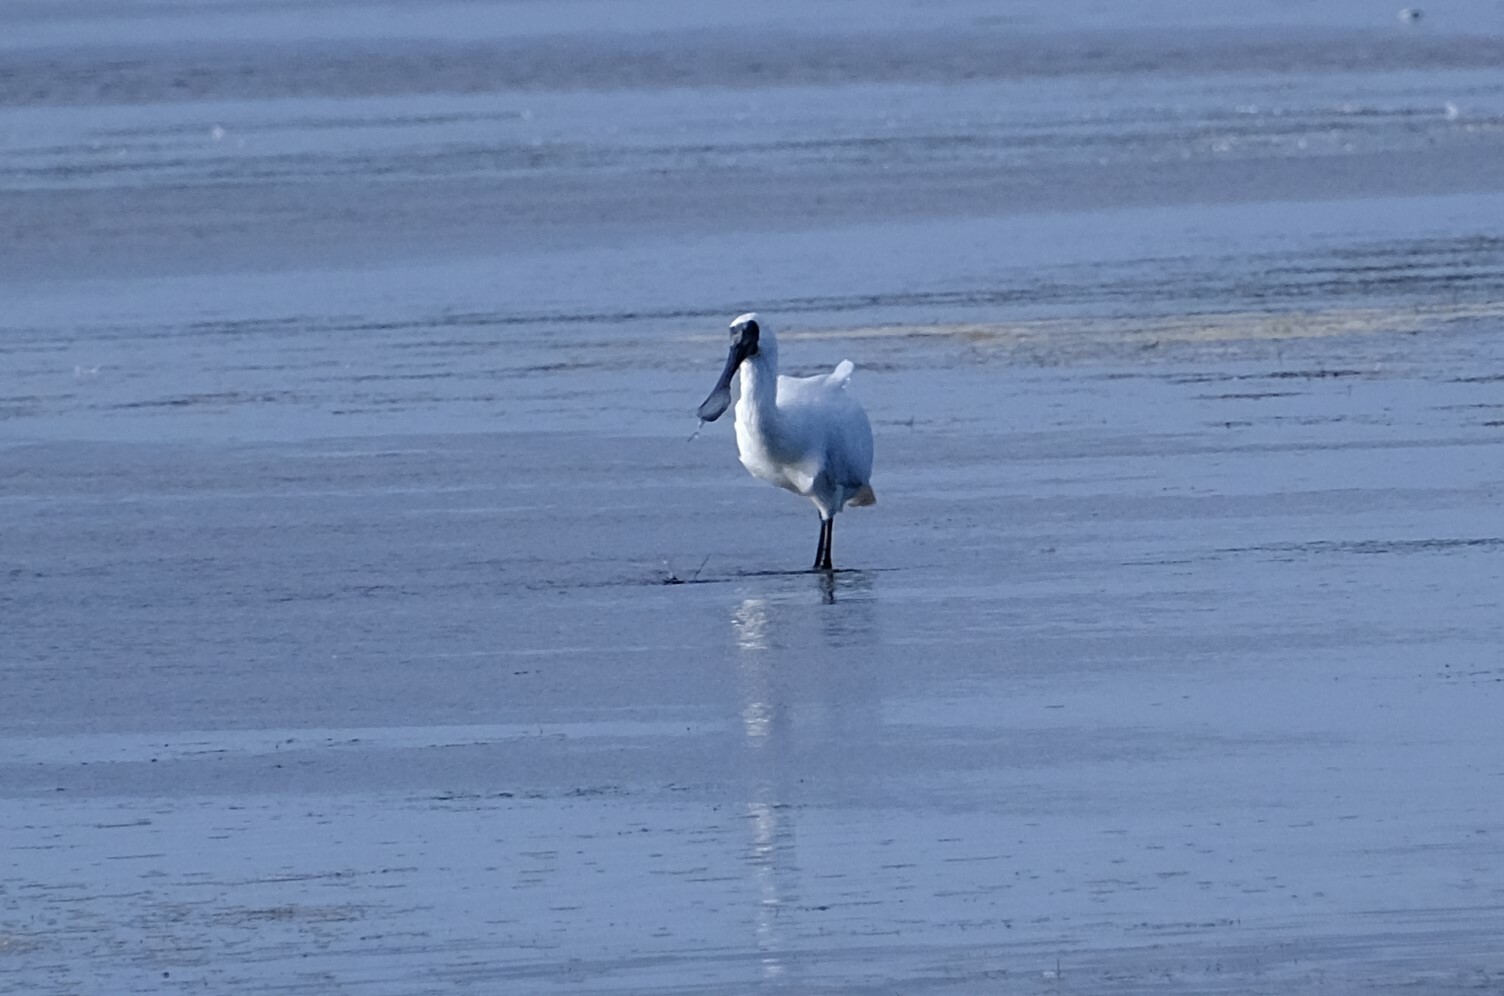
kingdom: Animalia
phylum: Chordata
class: Aves
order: Pelecaniformes
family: Threskiornithidae
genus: Platalea
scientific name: Platalea regia
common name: Royal spoonbill
